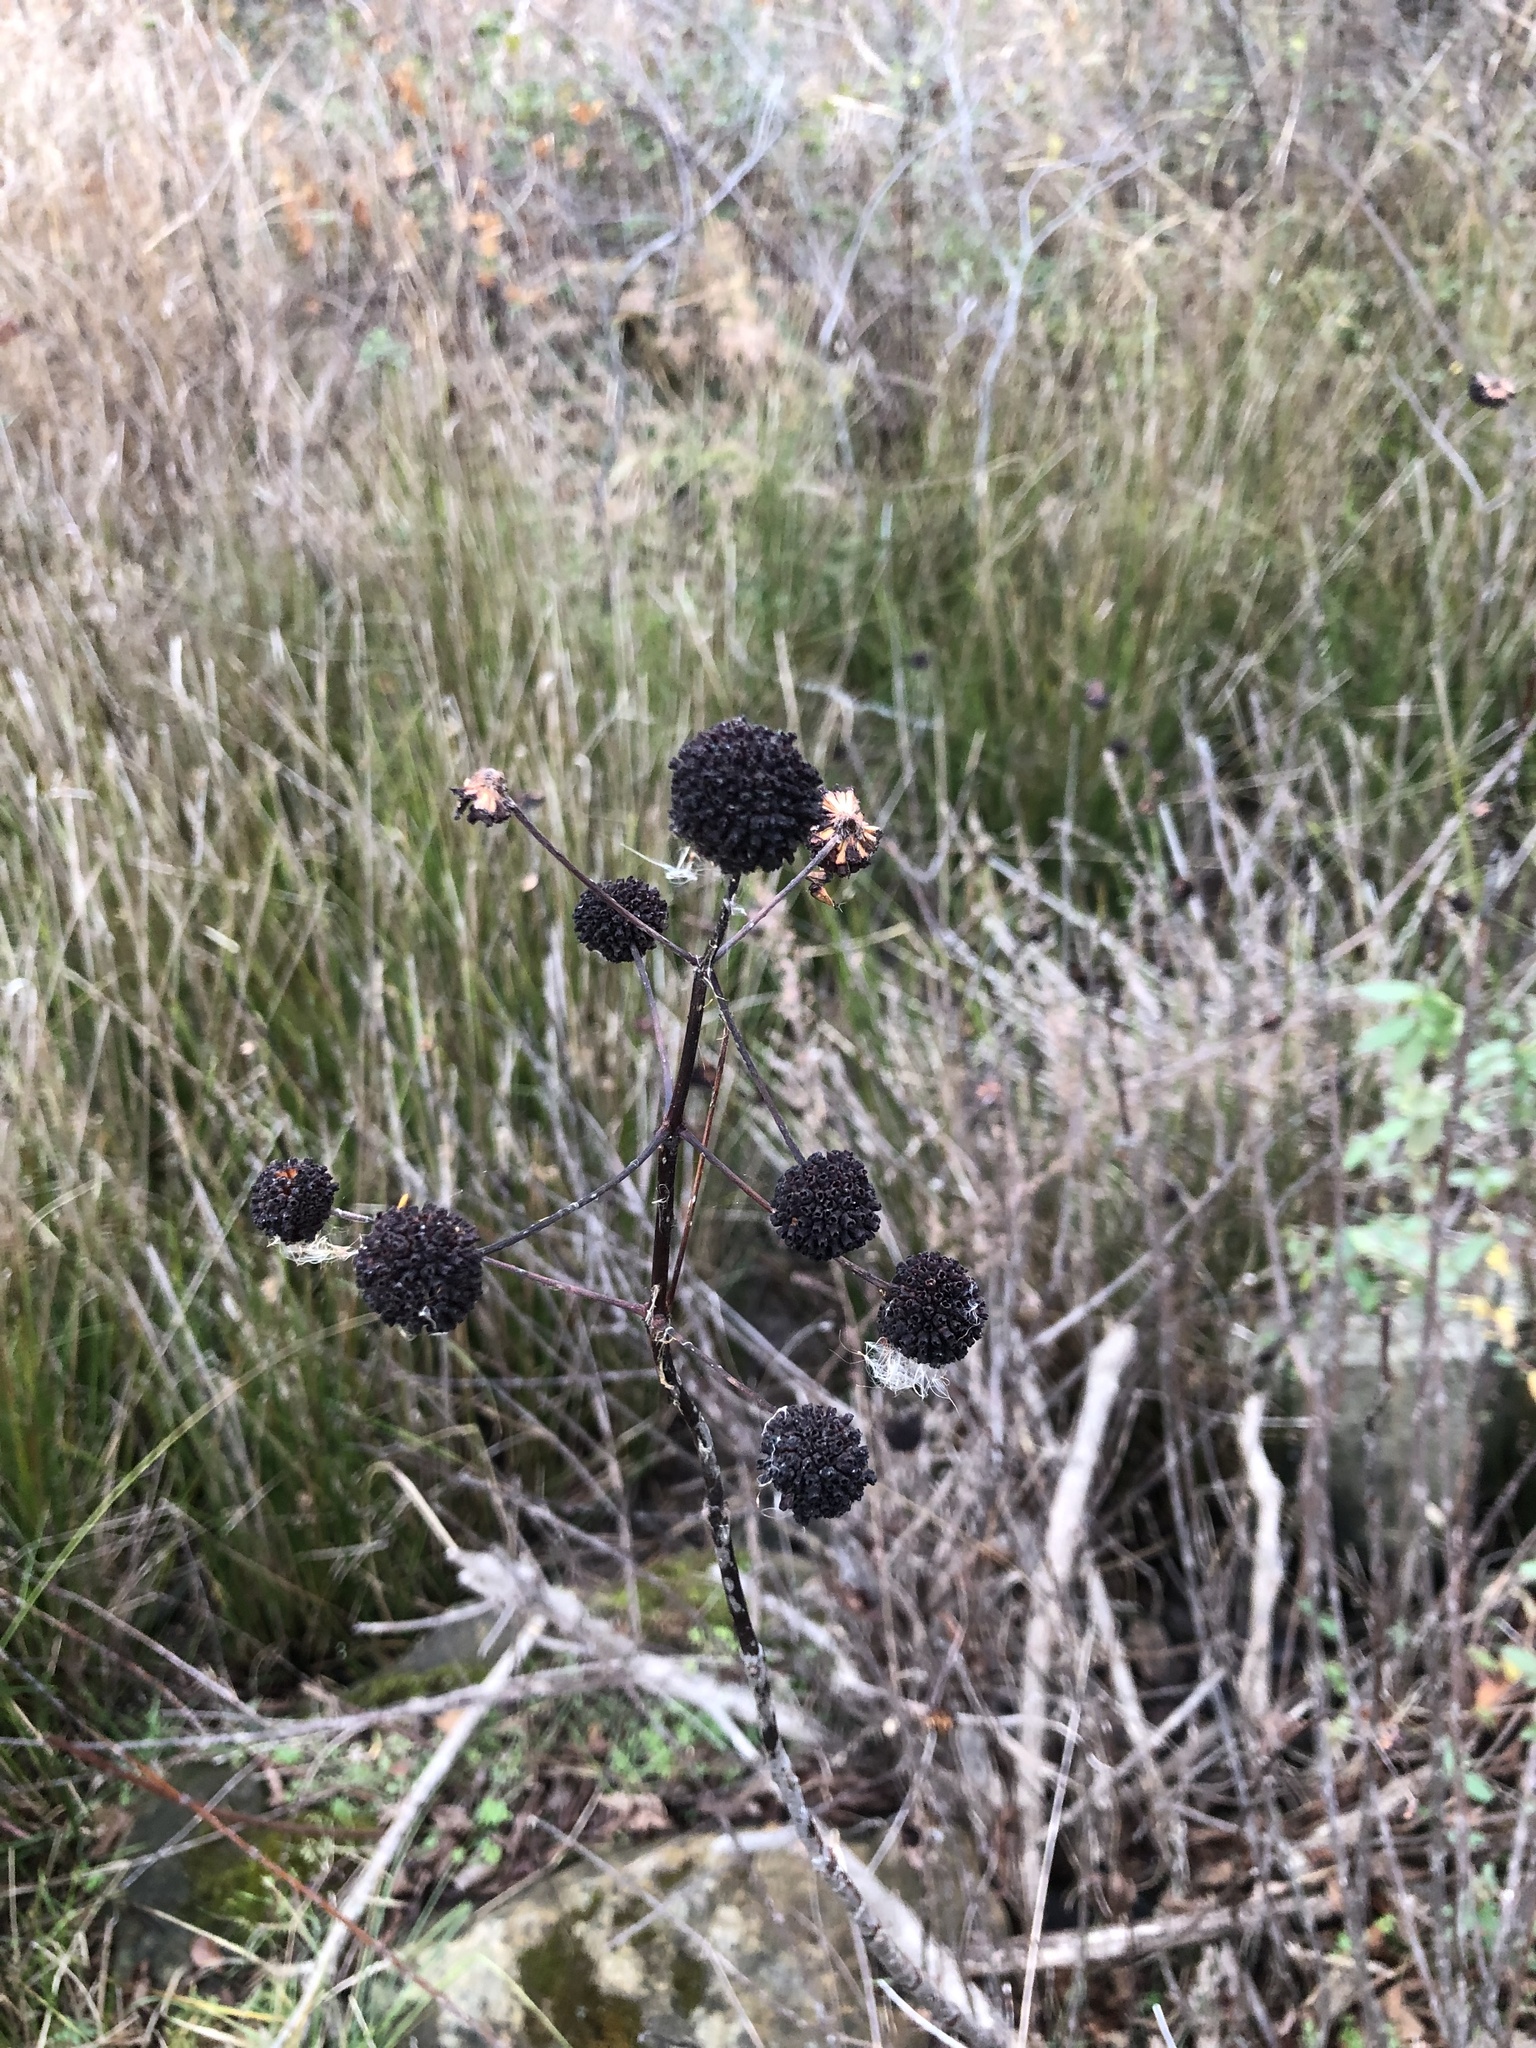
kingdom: Plantae
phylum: Tracheophyta
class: Magnoliopsida
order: Gentianales
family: Rubiaceae
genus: Cephalanthus
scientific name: Cephalanthus occidentalis
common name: Button-willow
